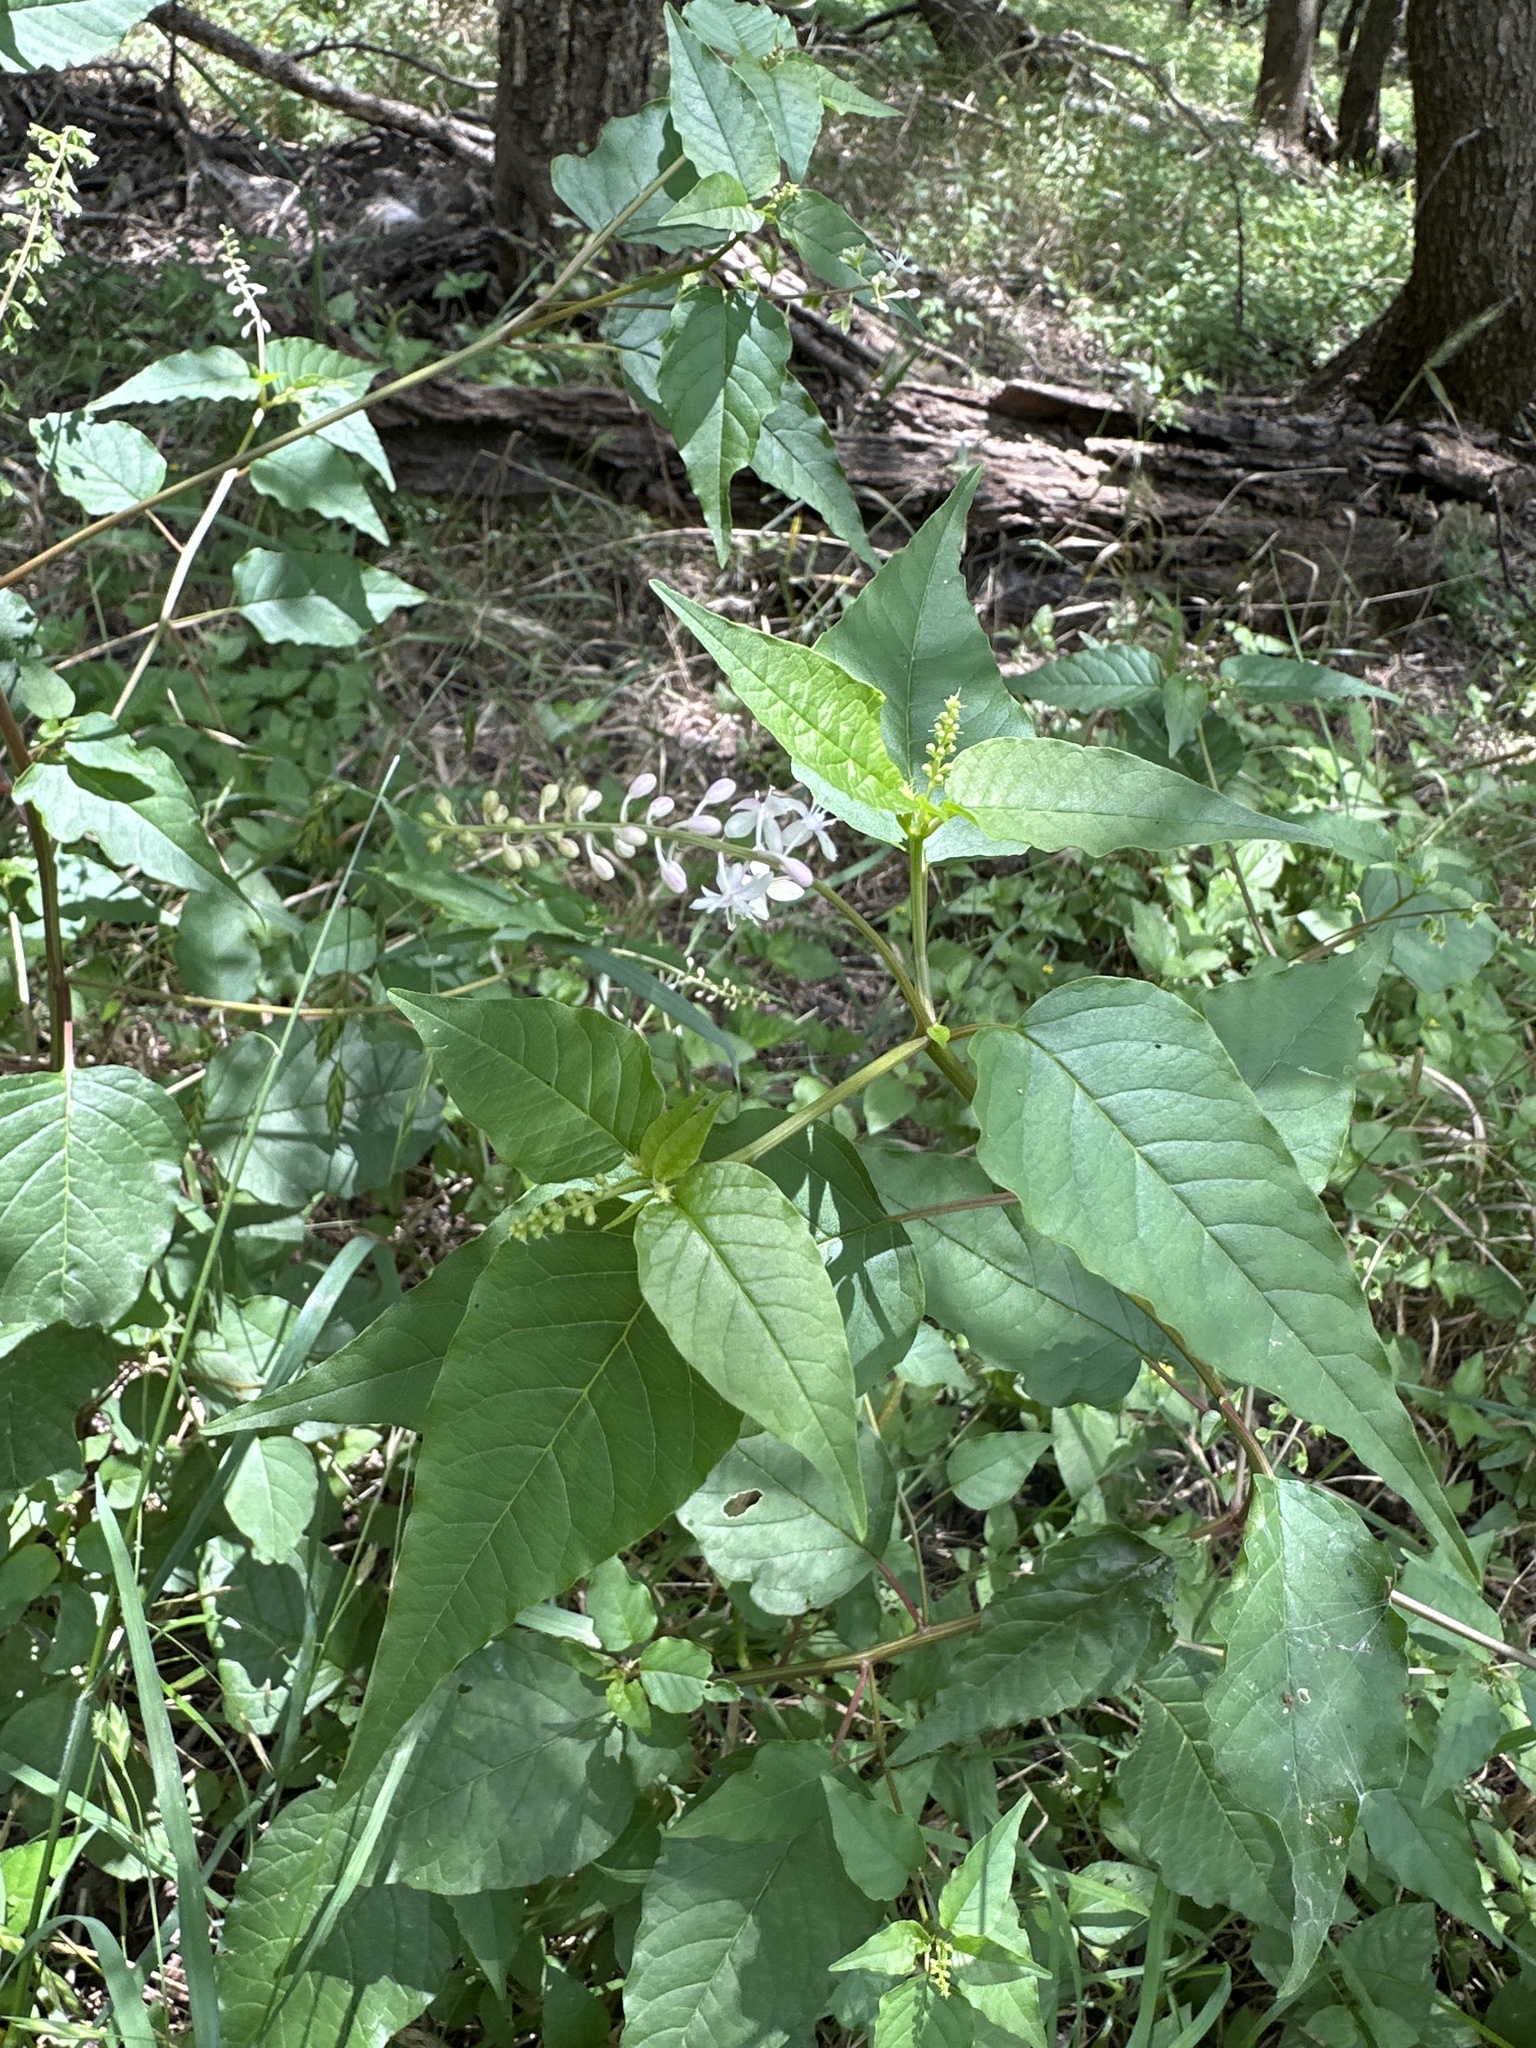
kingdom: Plantae
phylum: Tracheophyta
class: Magnoliopsida
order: Caryophyllales
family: Phytolaccaceae
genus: Rivina
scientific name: Rivina humilis
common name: Rougeplant
